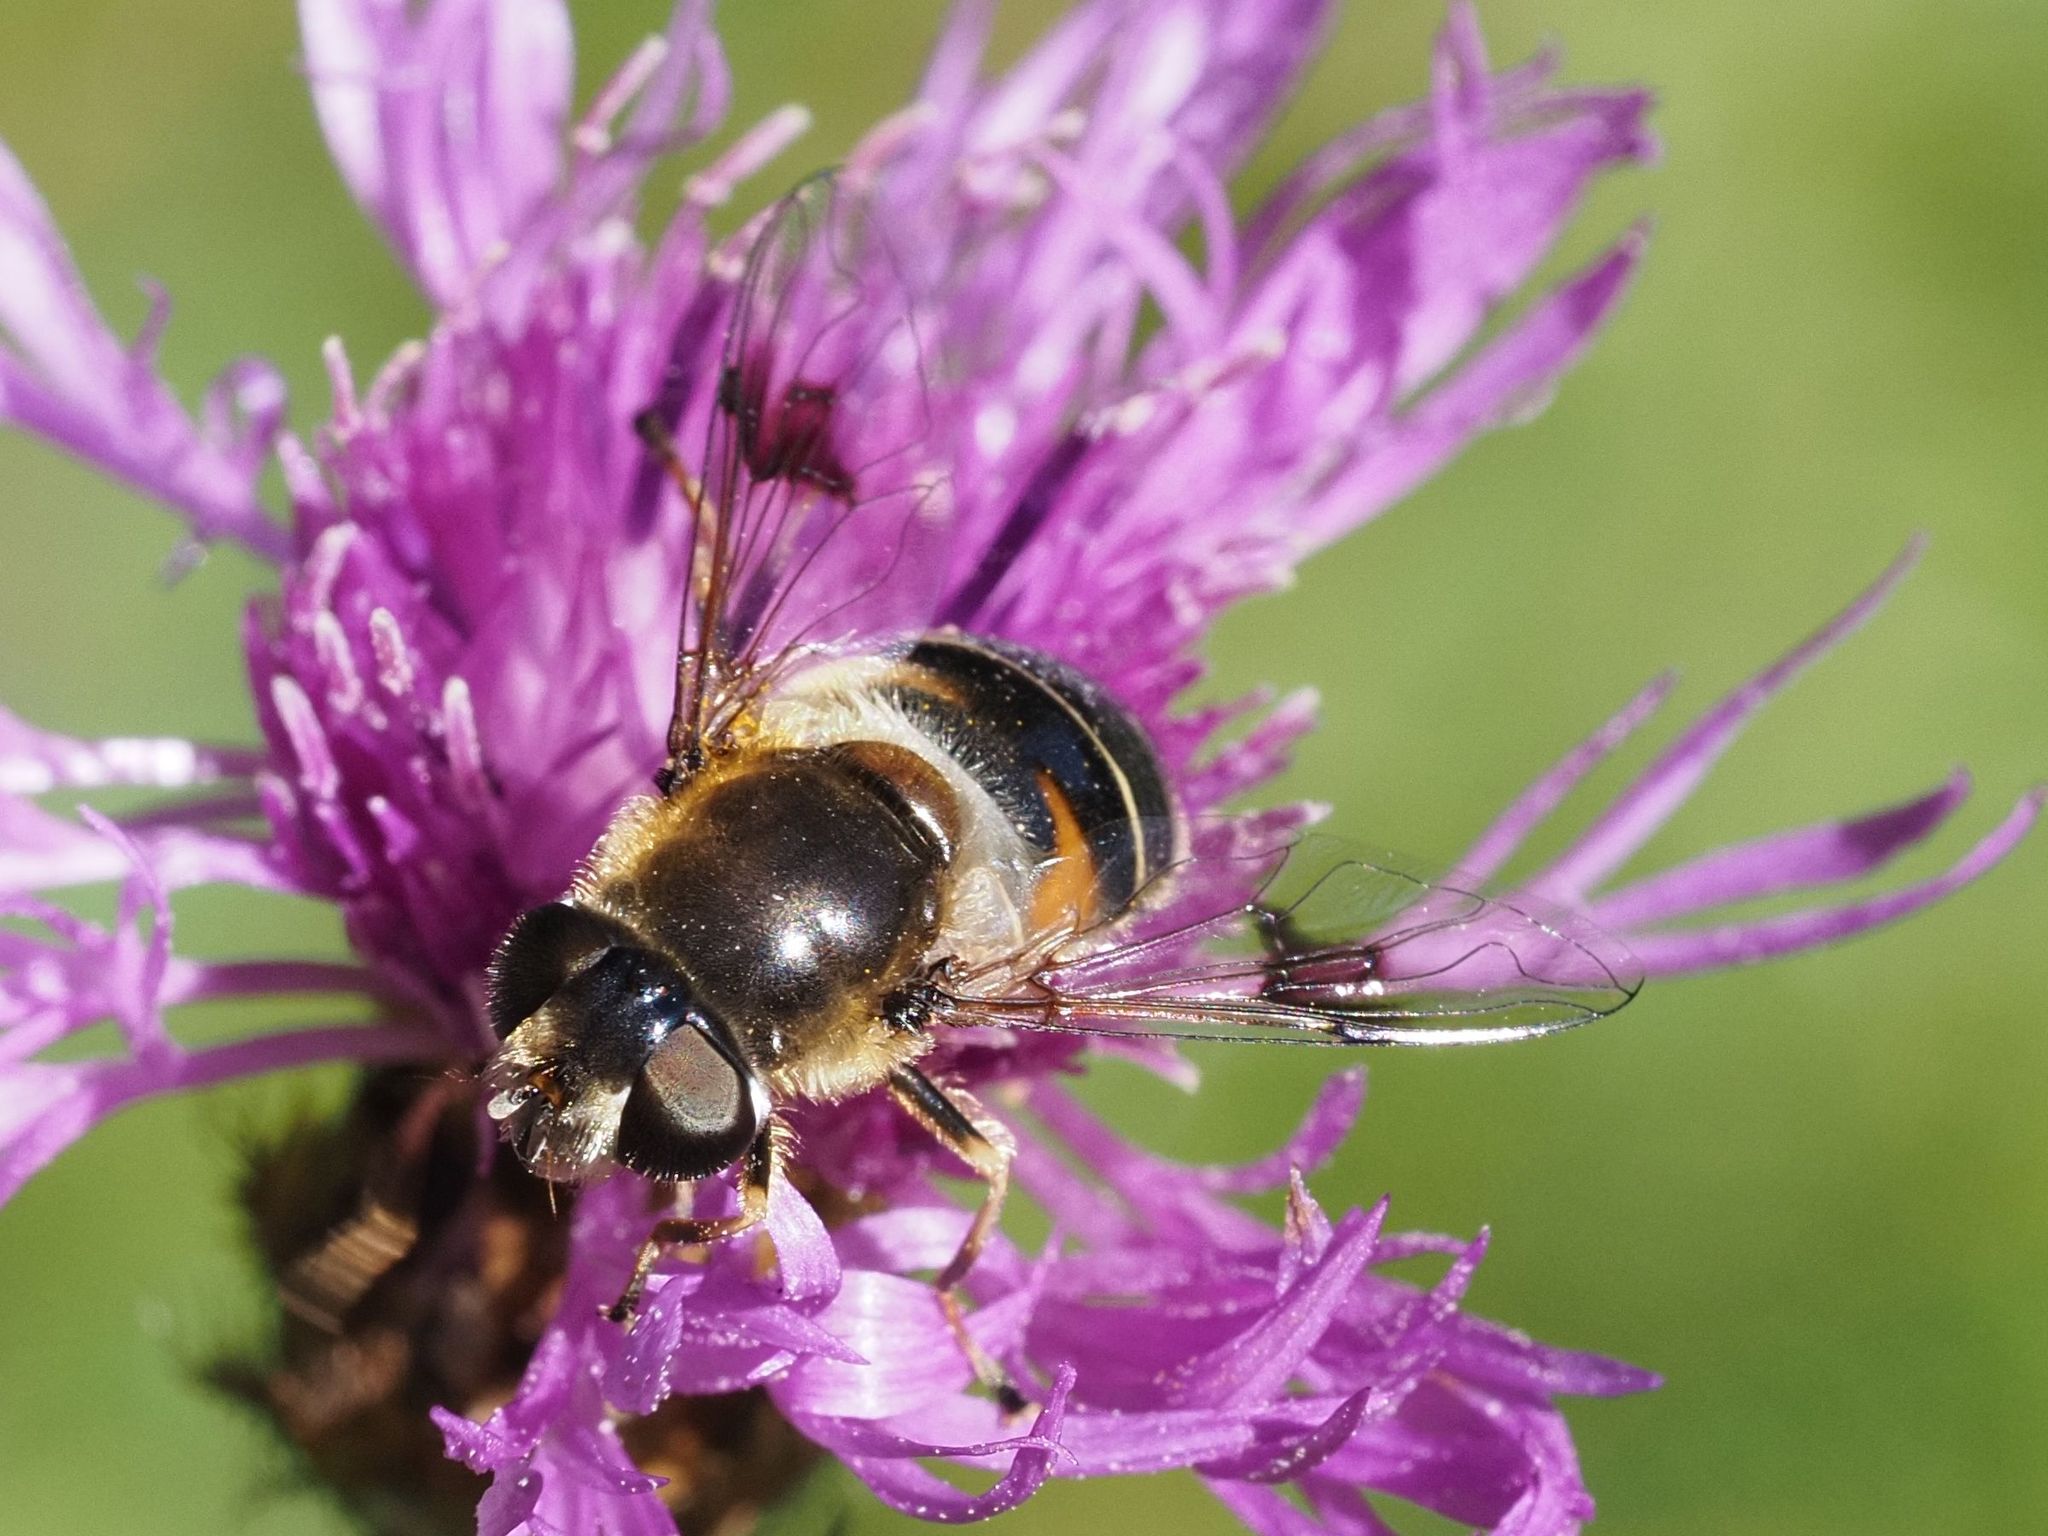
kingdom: Animalia
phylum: Arthropoda
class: Insecta
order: Diptera
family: Syrphidae
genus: Eristalis
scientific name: Eristalis rupium
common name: Hover fly
